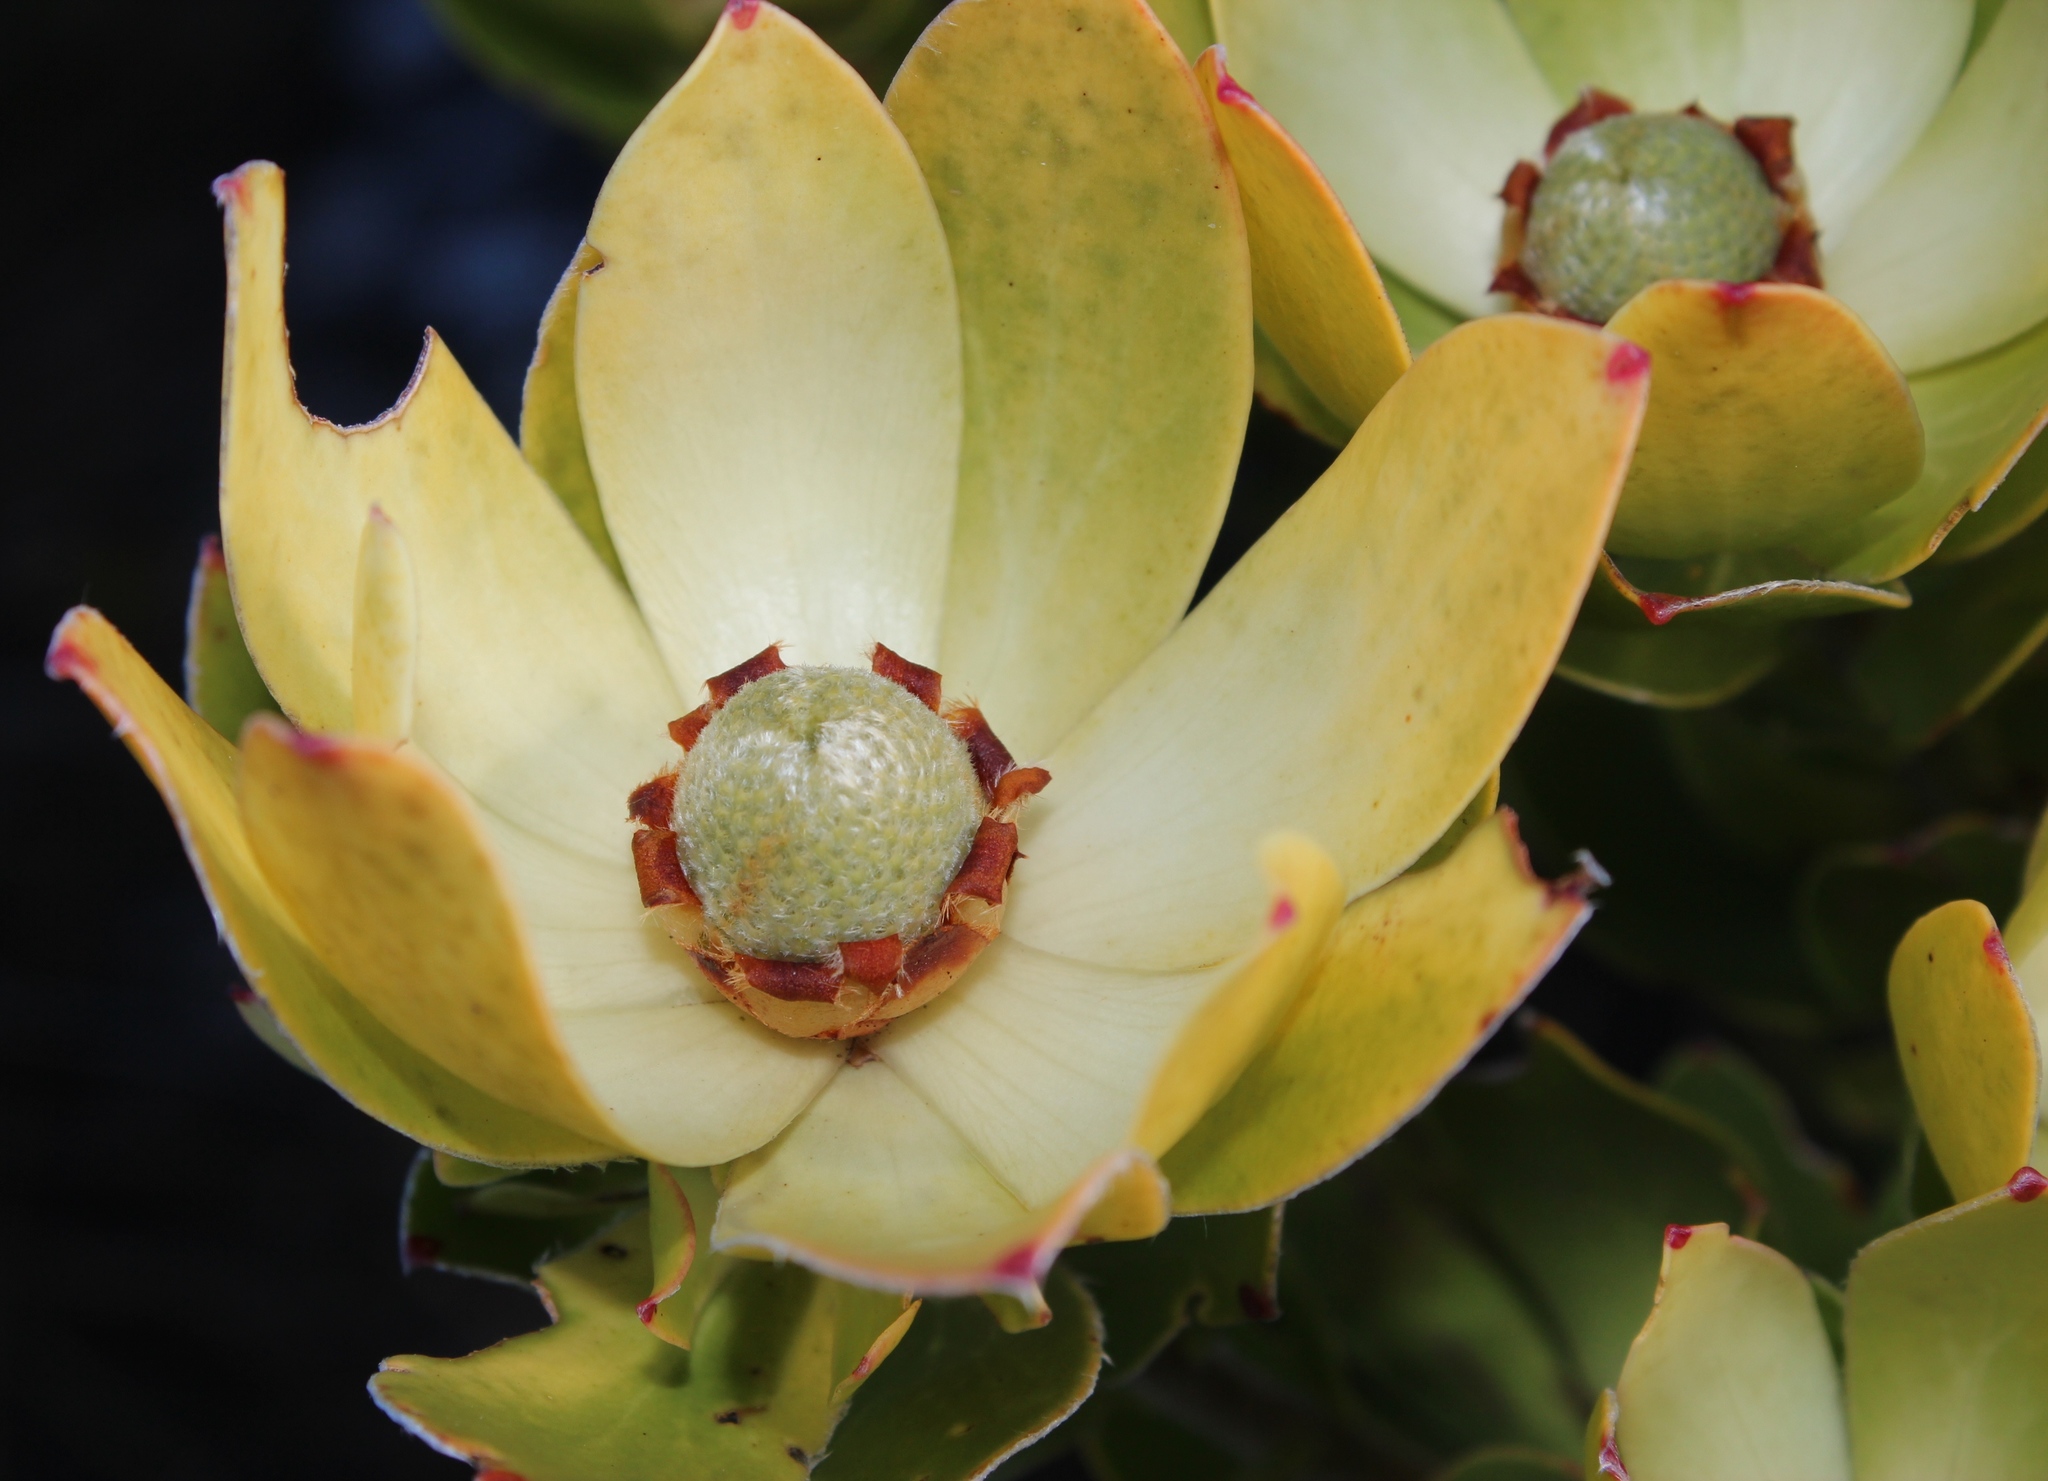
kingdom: Plantae
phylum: Tracheophyta
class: Magnoliopsida
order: Proteales
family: Proteaceae
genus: Leucadendron
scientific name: Leucadendron strobilinum
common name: Mountain rose
